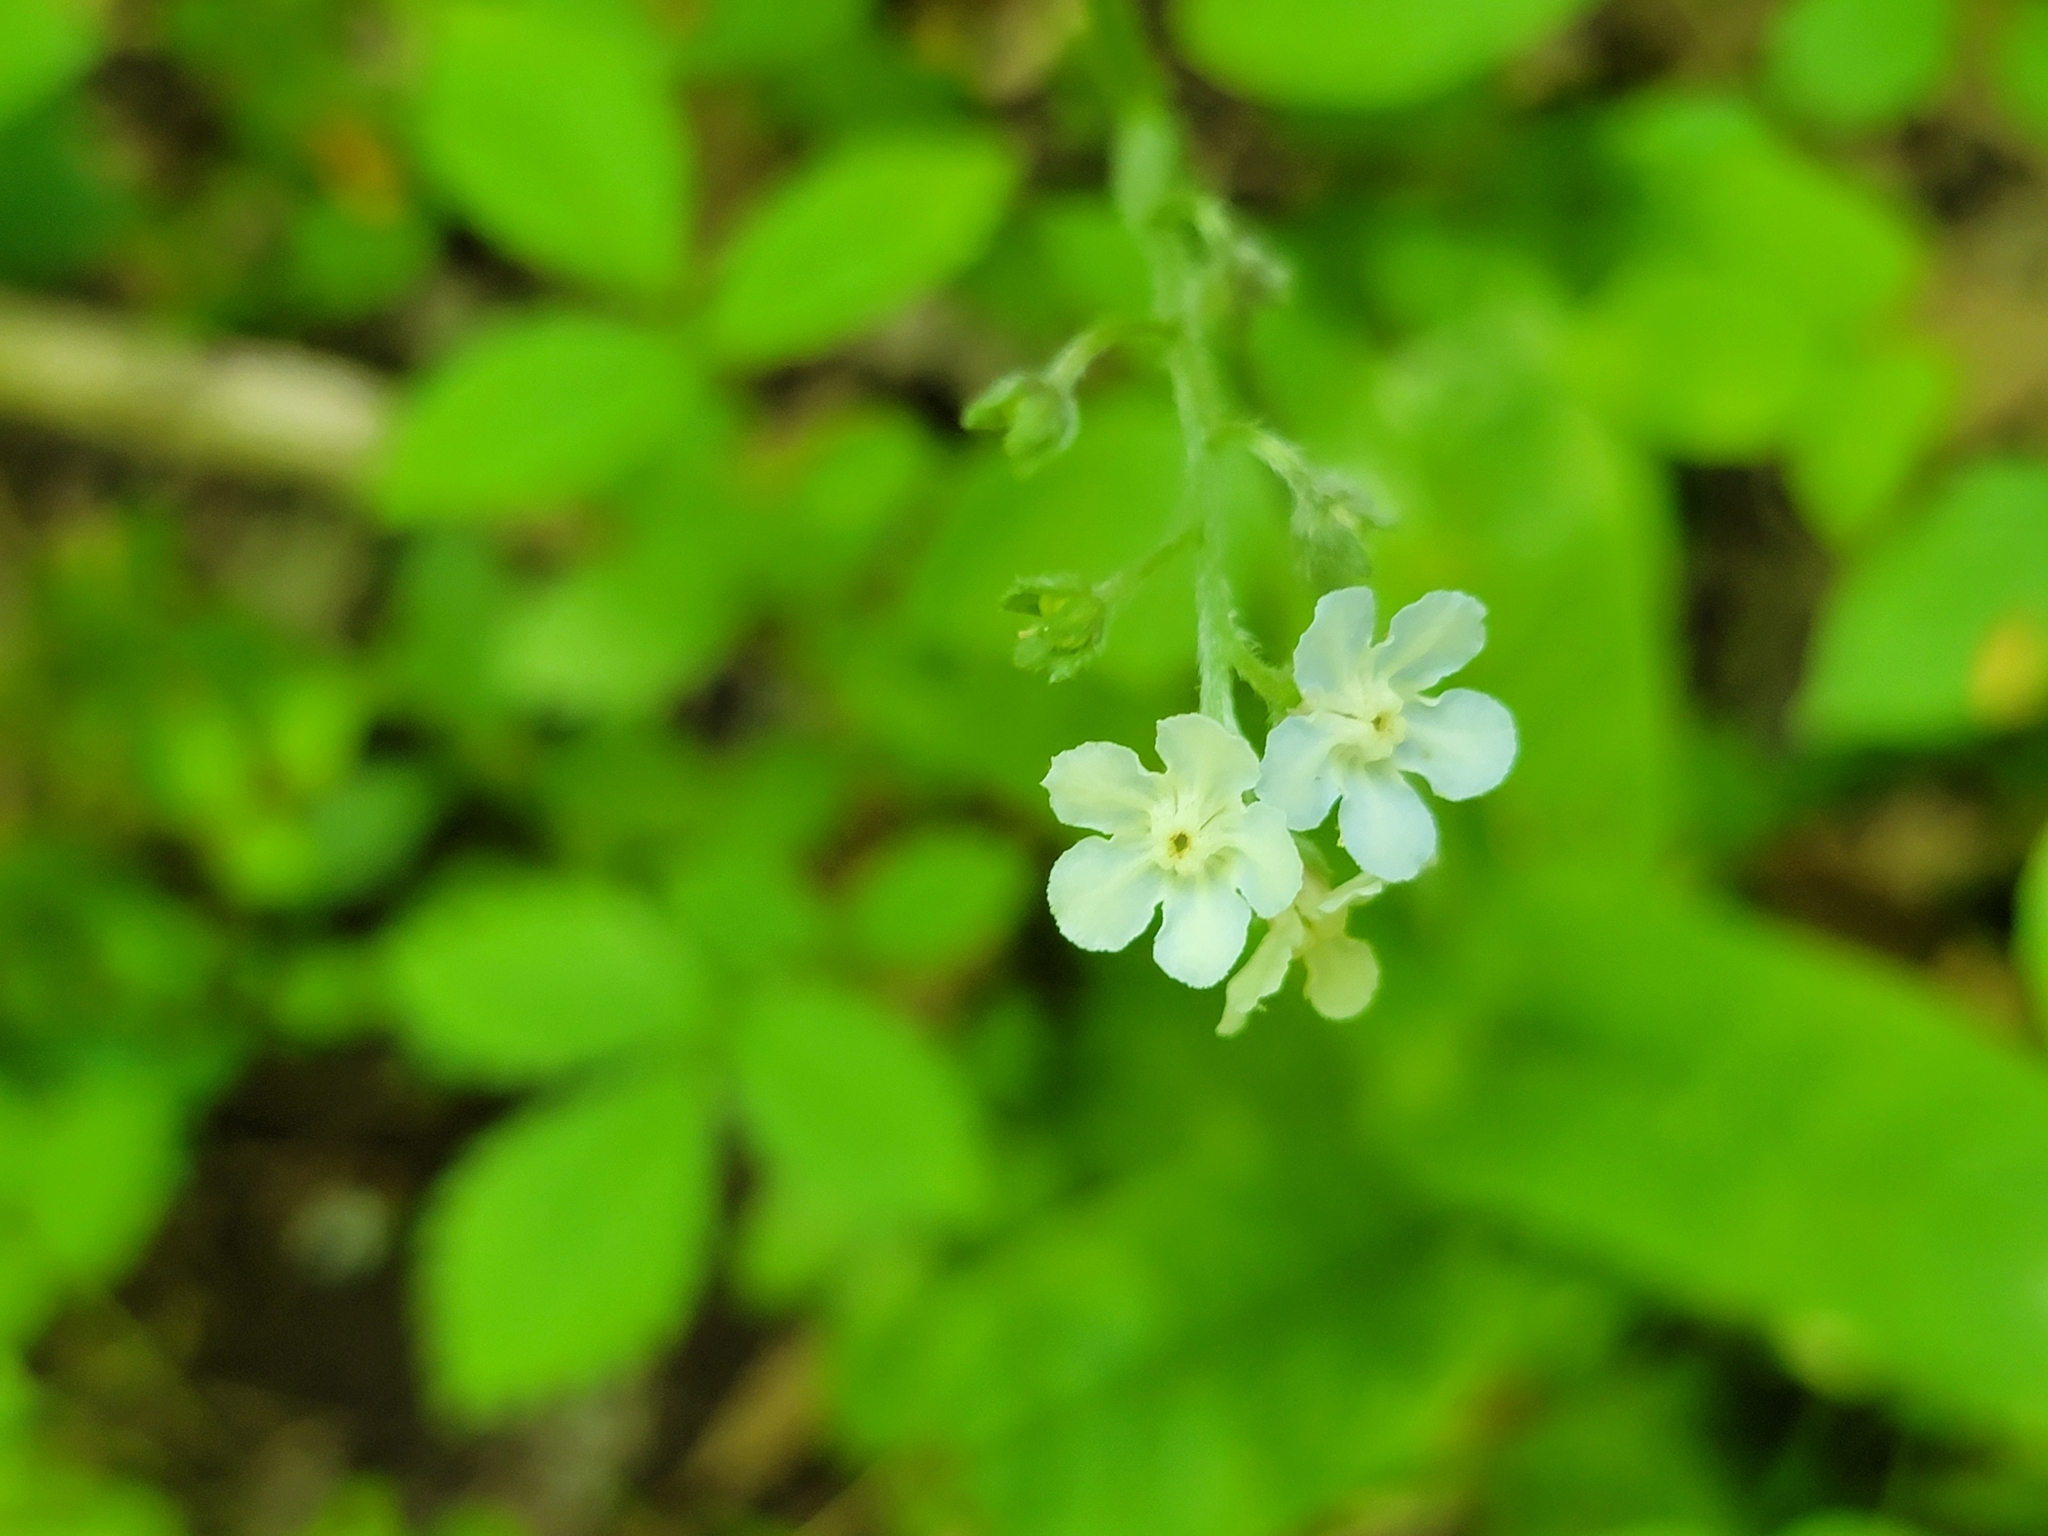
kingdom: Plantae
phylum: Tracheophyta
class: Magnoliopsida
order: Boraginales
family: Boraginaceae
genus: Andersonglossum
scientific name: Andersonglossum virginianum
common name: Wild comfrey
